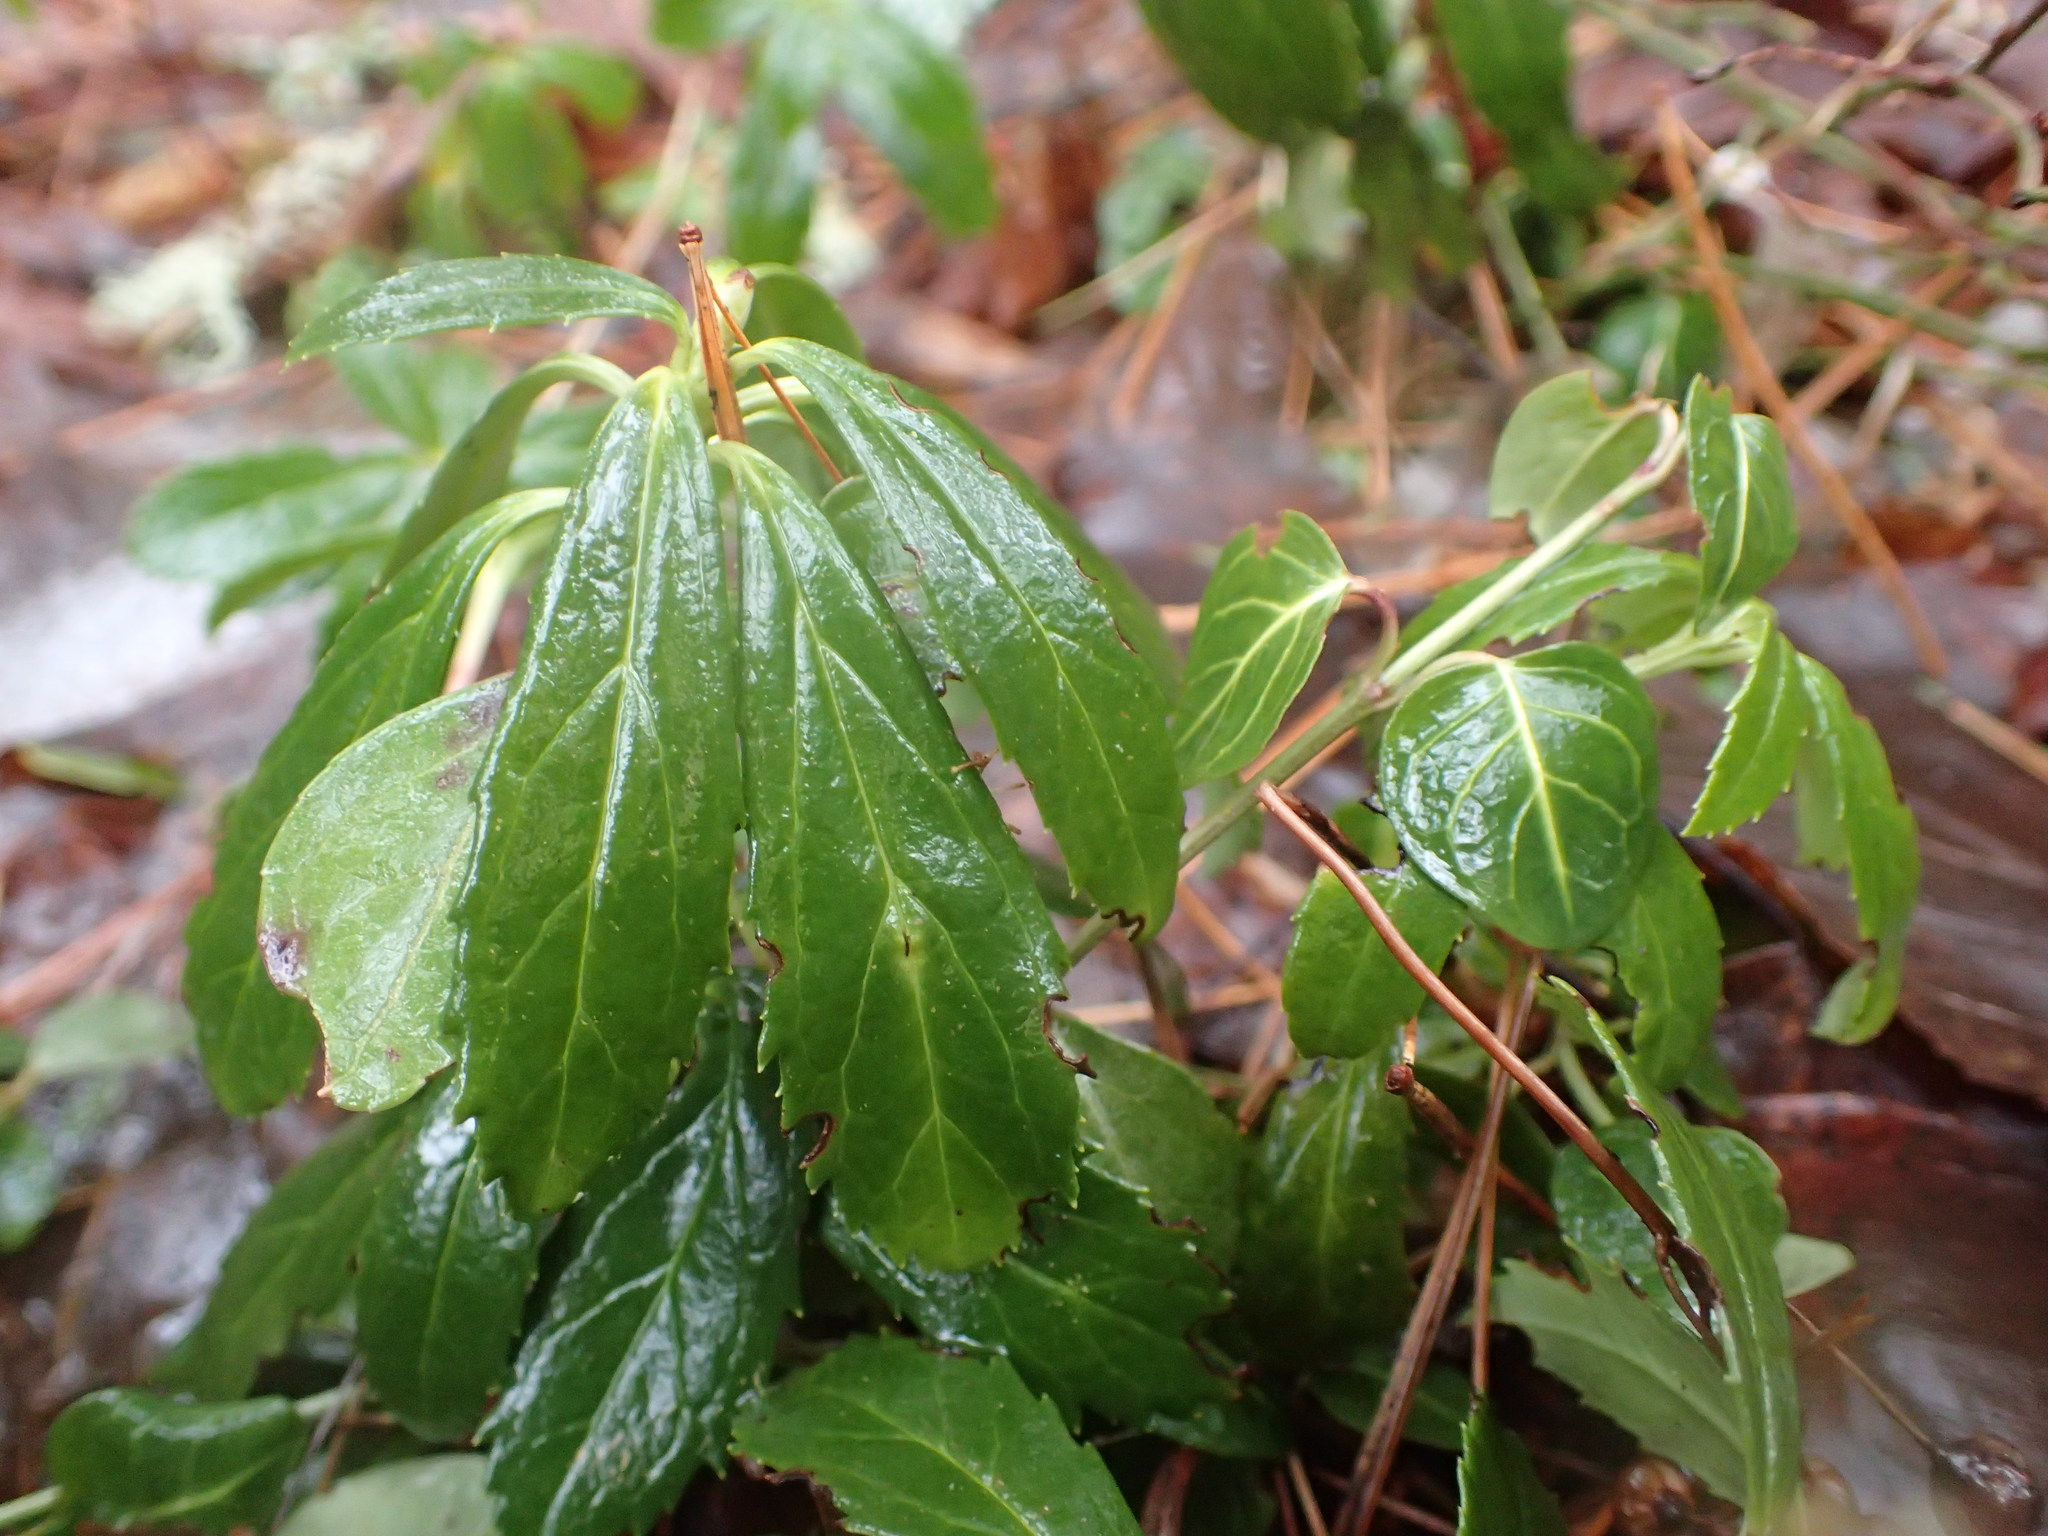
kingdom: Plantae
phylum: Tracheophyta
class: Magnoliopsida
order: Ericales
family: Ericaceae
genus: Chimaphila
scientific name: Chimaphila umbellata
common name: Pipsissewa
